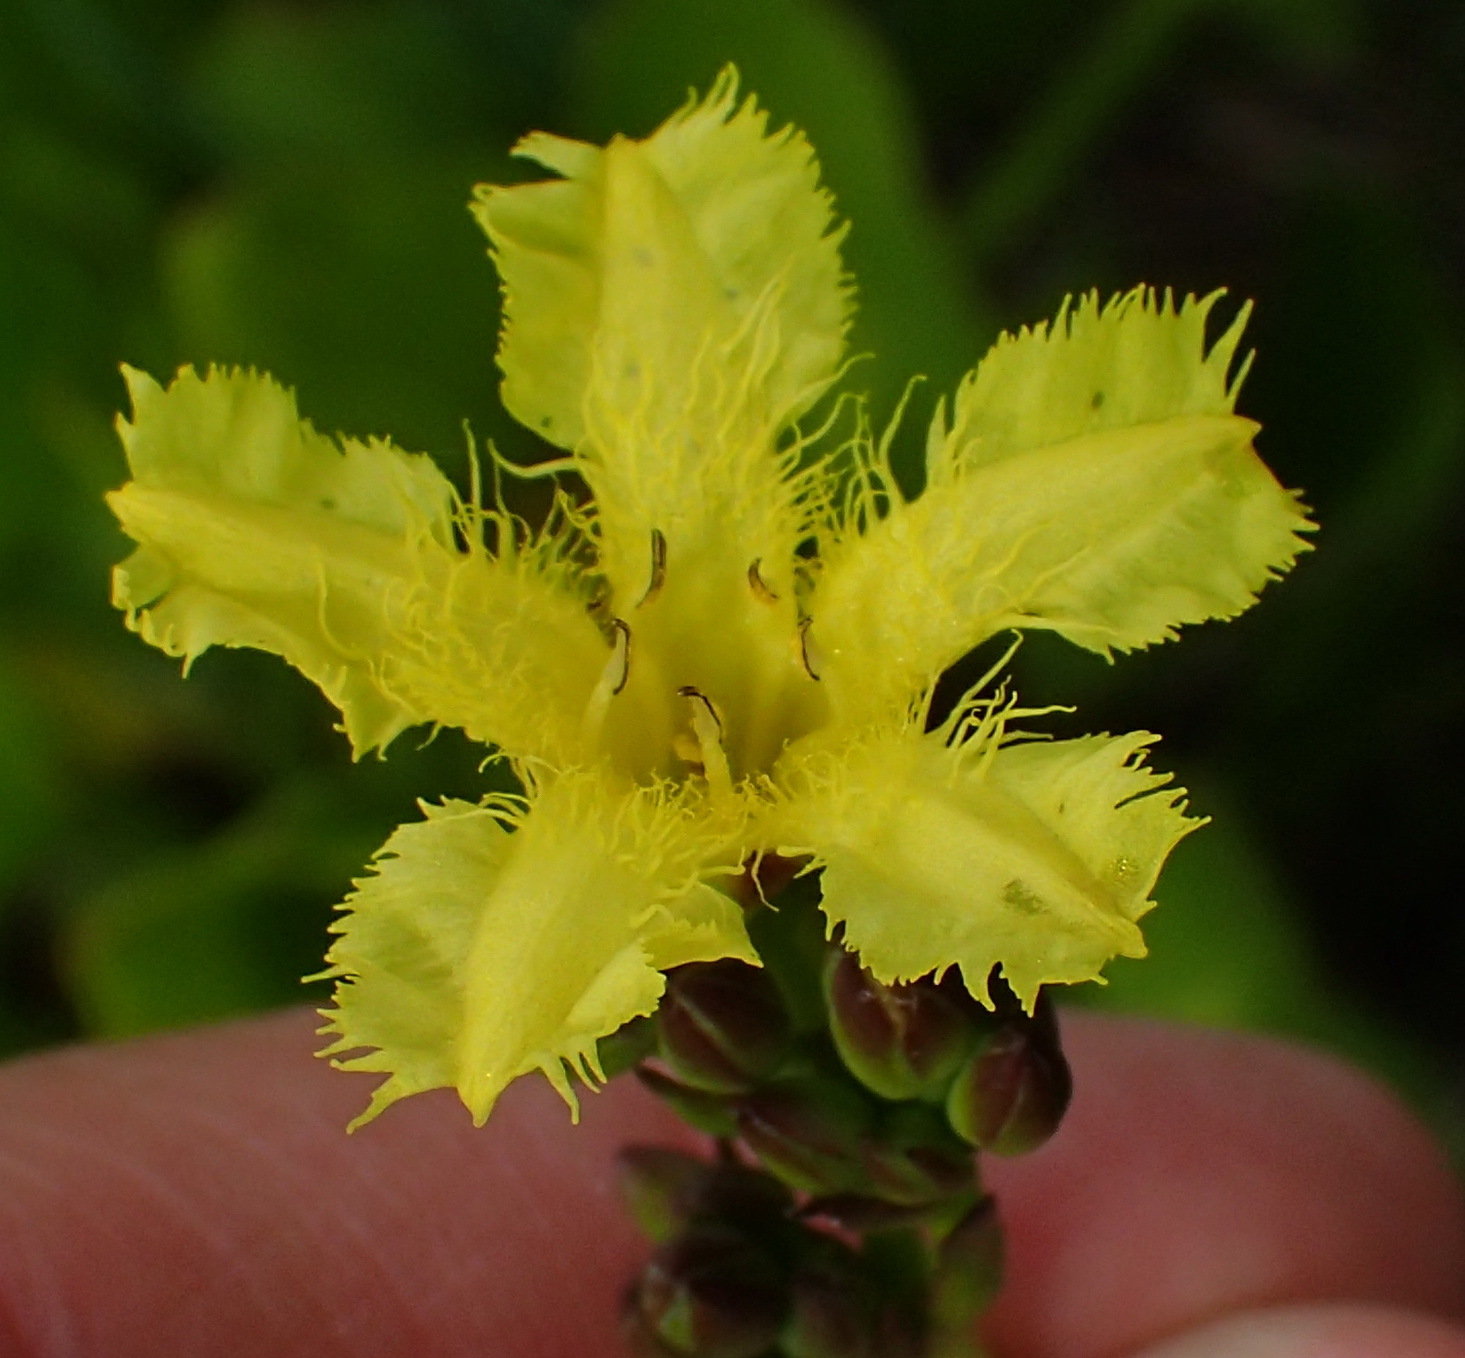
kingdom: Plantae
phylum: Tracheophyta
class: Magnoliopsida
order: Asterales
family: Menyanthaceae
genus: Villarsia
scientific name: Villarsia capensis
